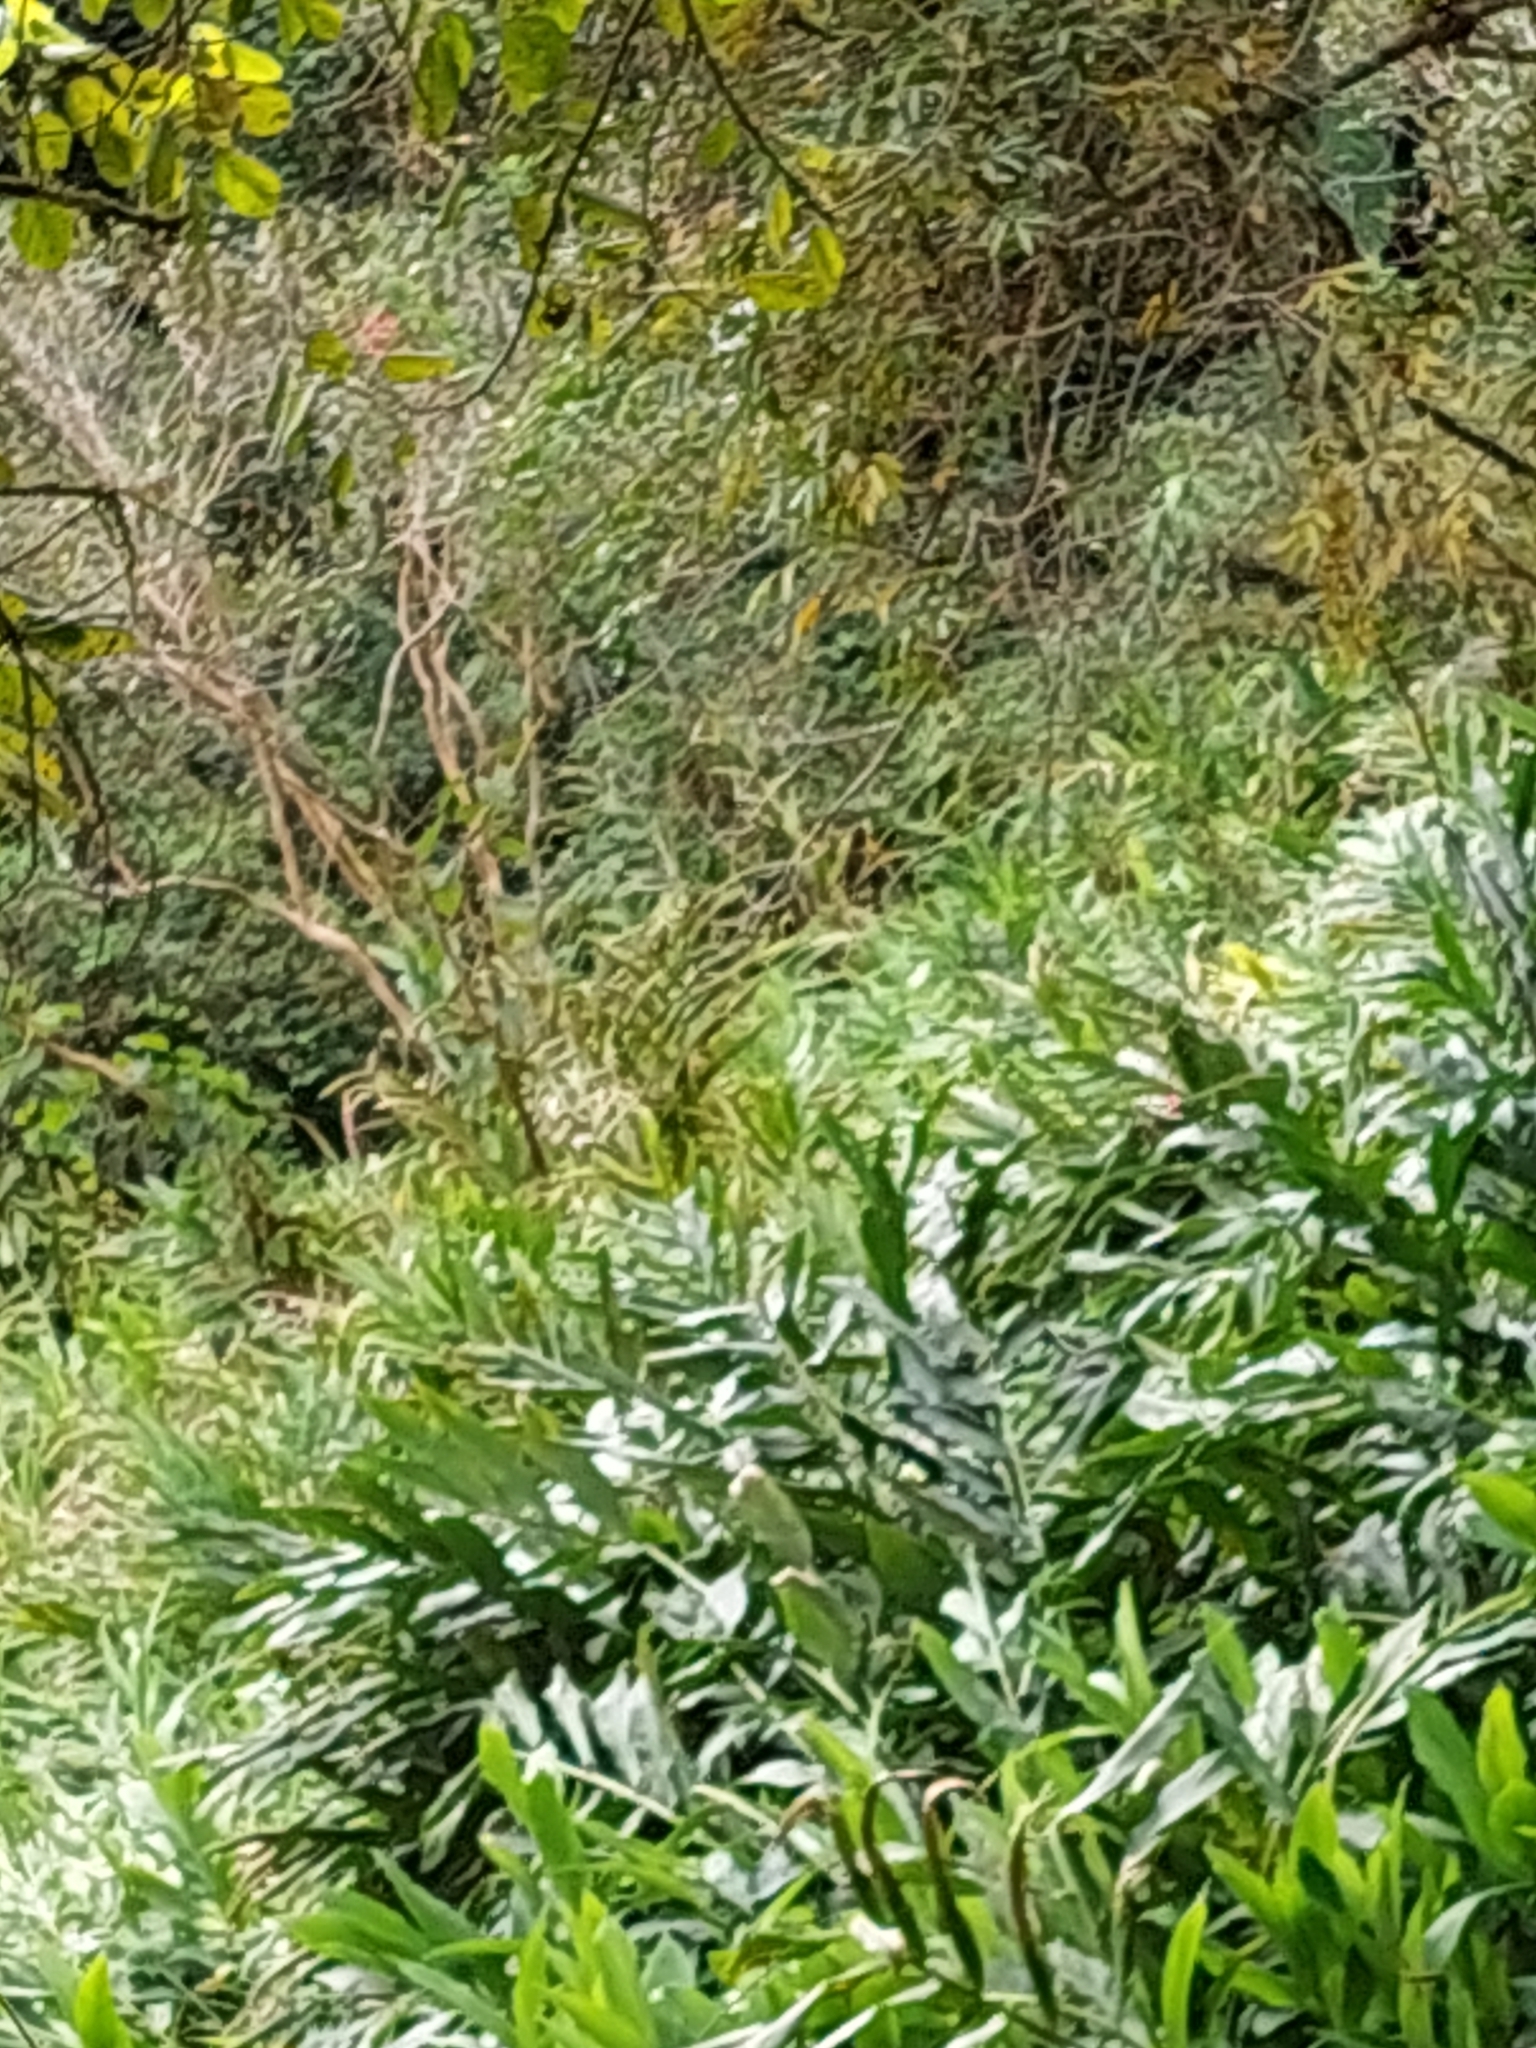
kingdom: Plantae
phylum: Tracheophyta
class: Liliopsida
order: Zingiberales
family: Zingiberaceae
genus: Hedychium
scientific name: Hedychium coronarium
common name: White garland-lily
